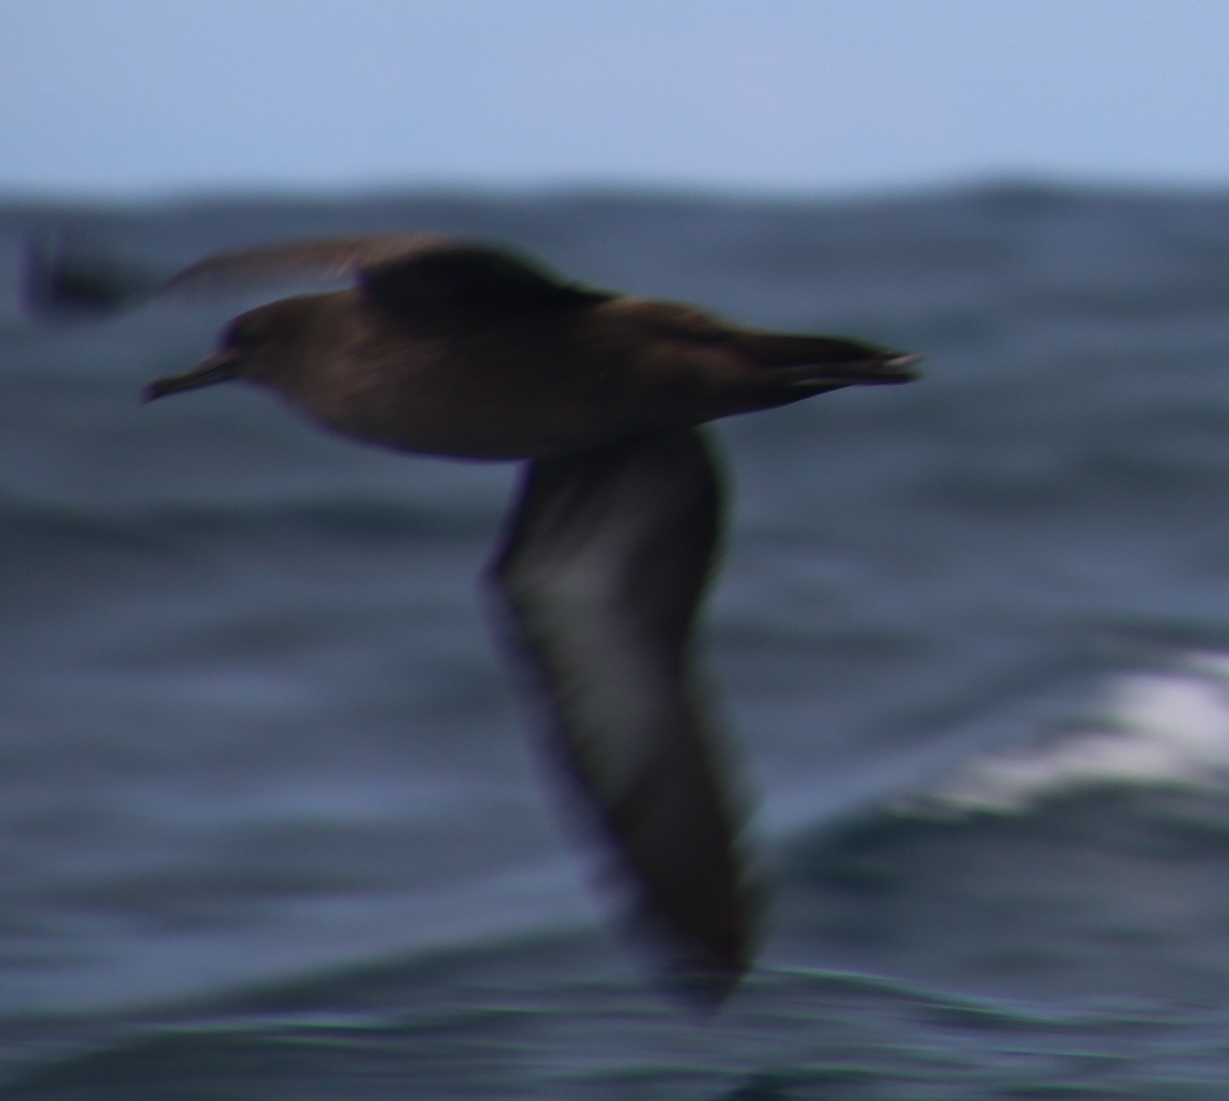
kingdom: Animalia
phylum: Chordata
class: Aves
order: Procellariiformes
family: Procellariidae
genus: Puffinus
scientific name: Puffinus griseus
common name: Sooty shearwater
